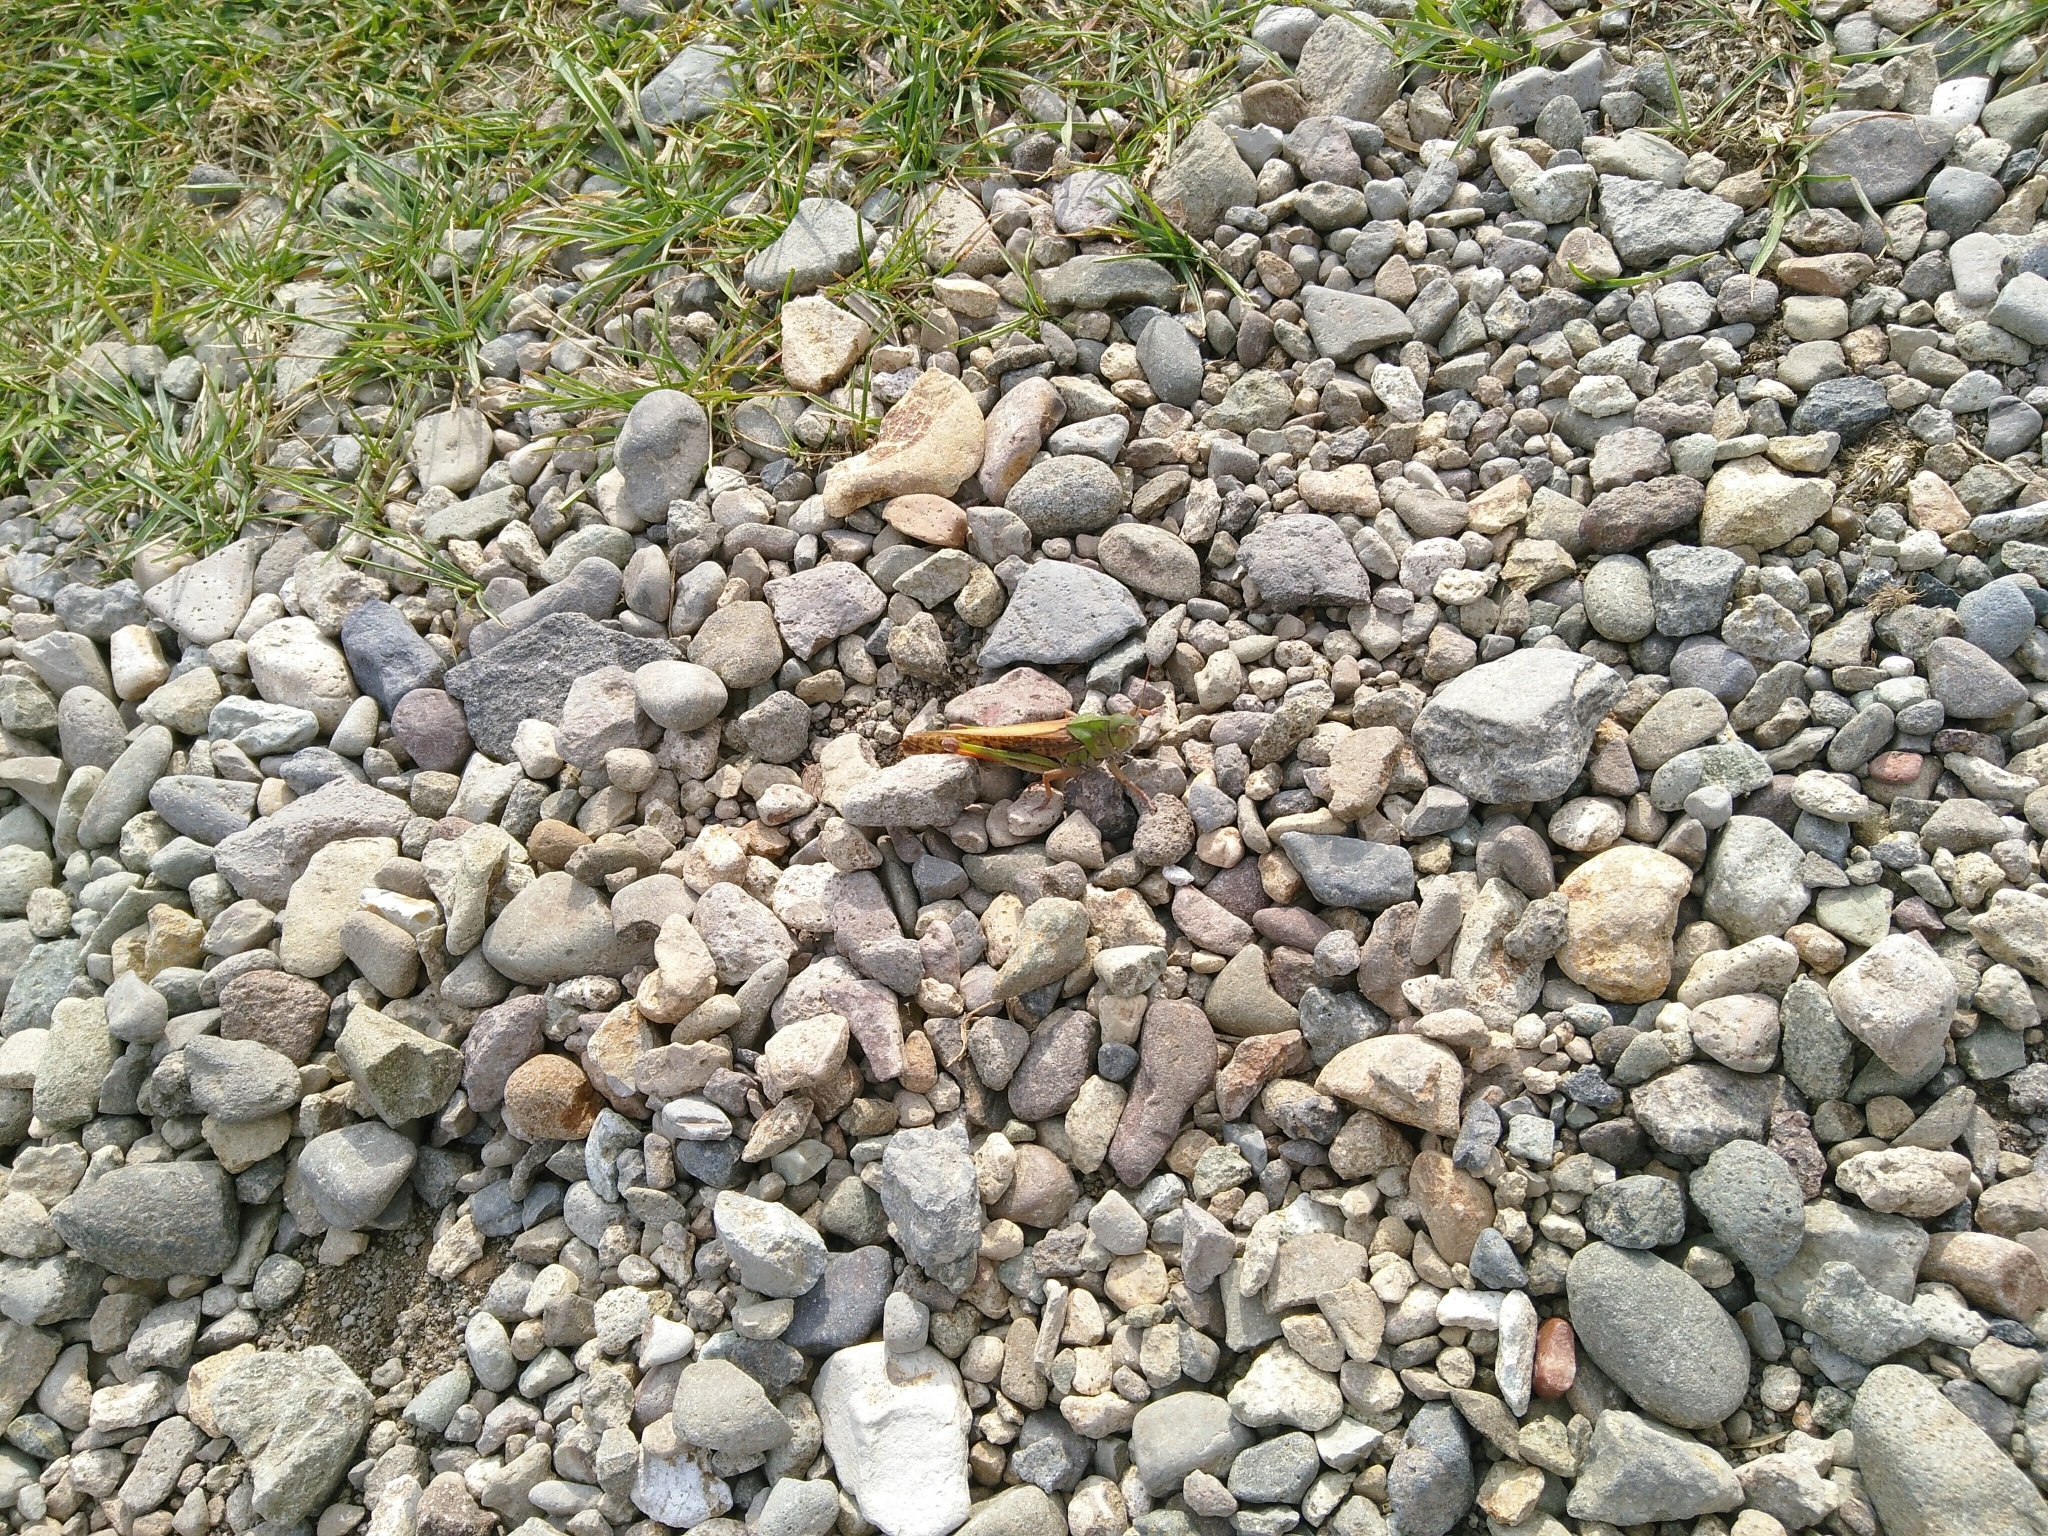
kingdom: Animalia
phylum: Arthropoda
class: Insecta
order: Orthoptera
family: Acrididae
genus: Locusta
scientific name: Locusta migratoria
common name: Migratory locust
